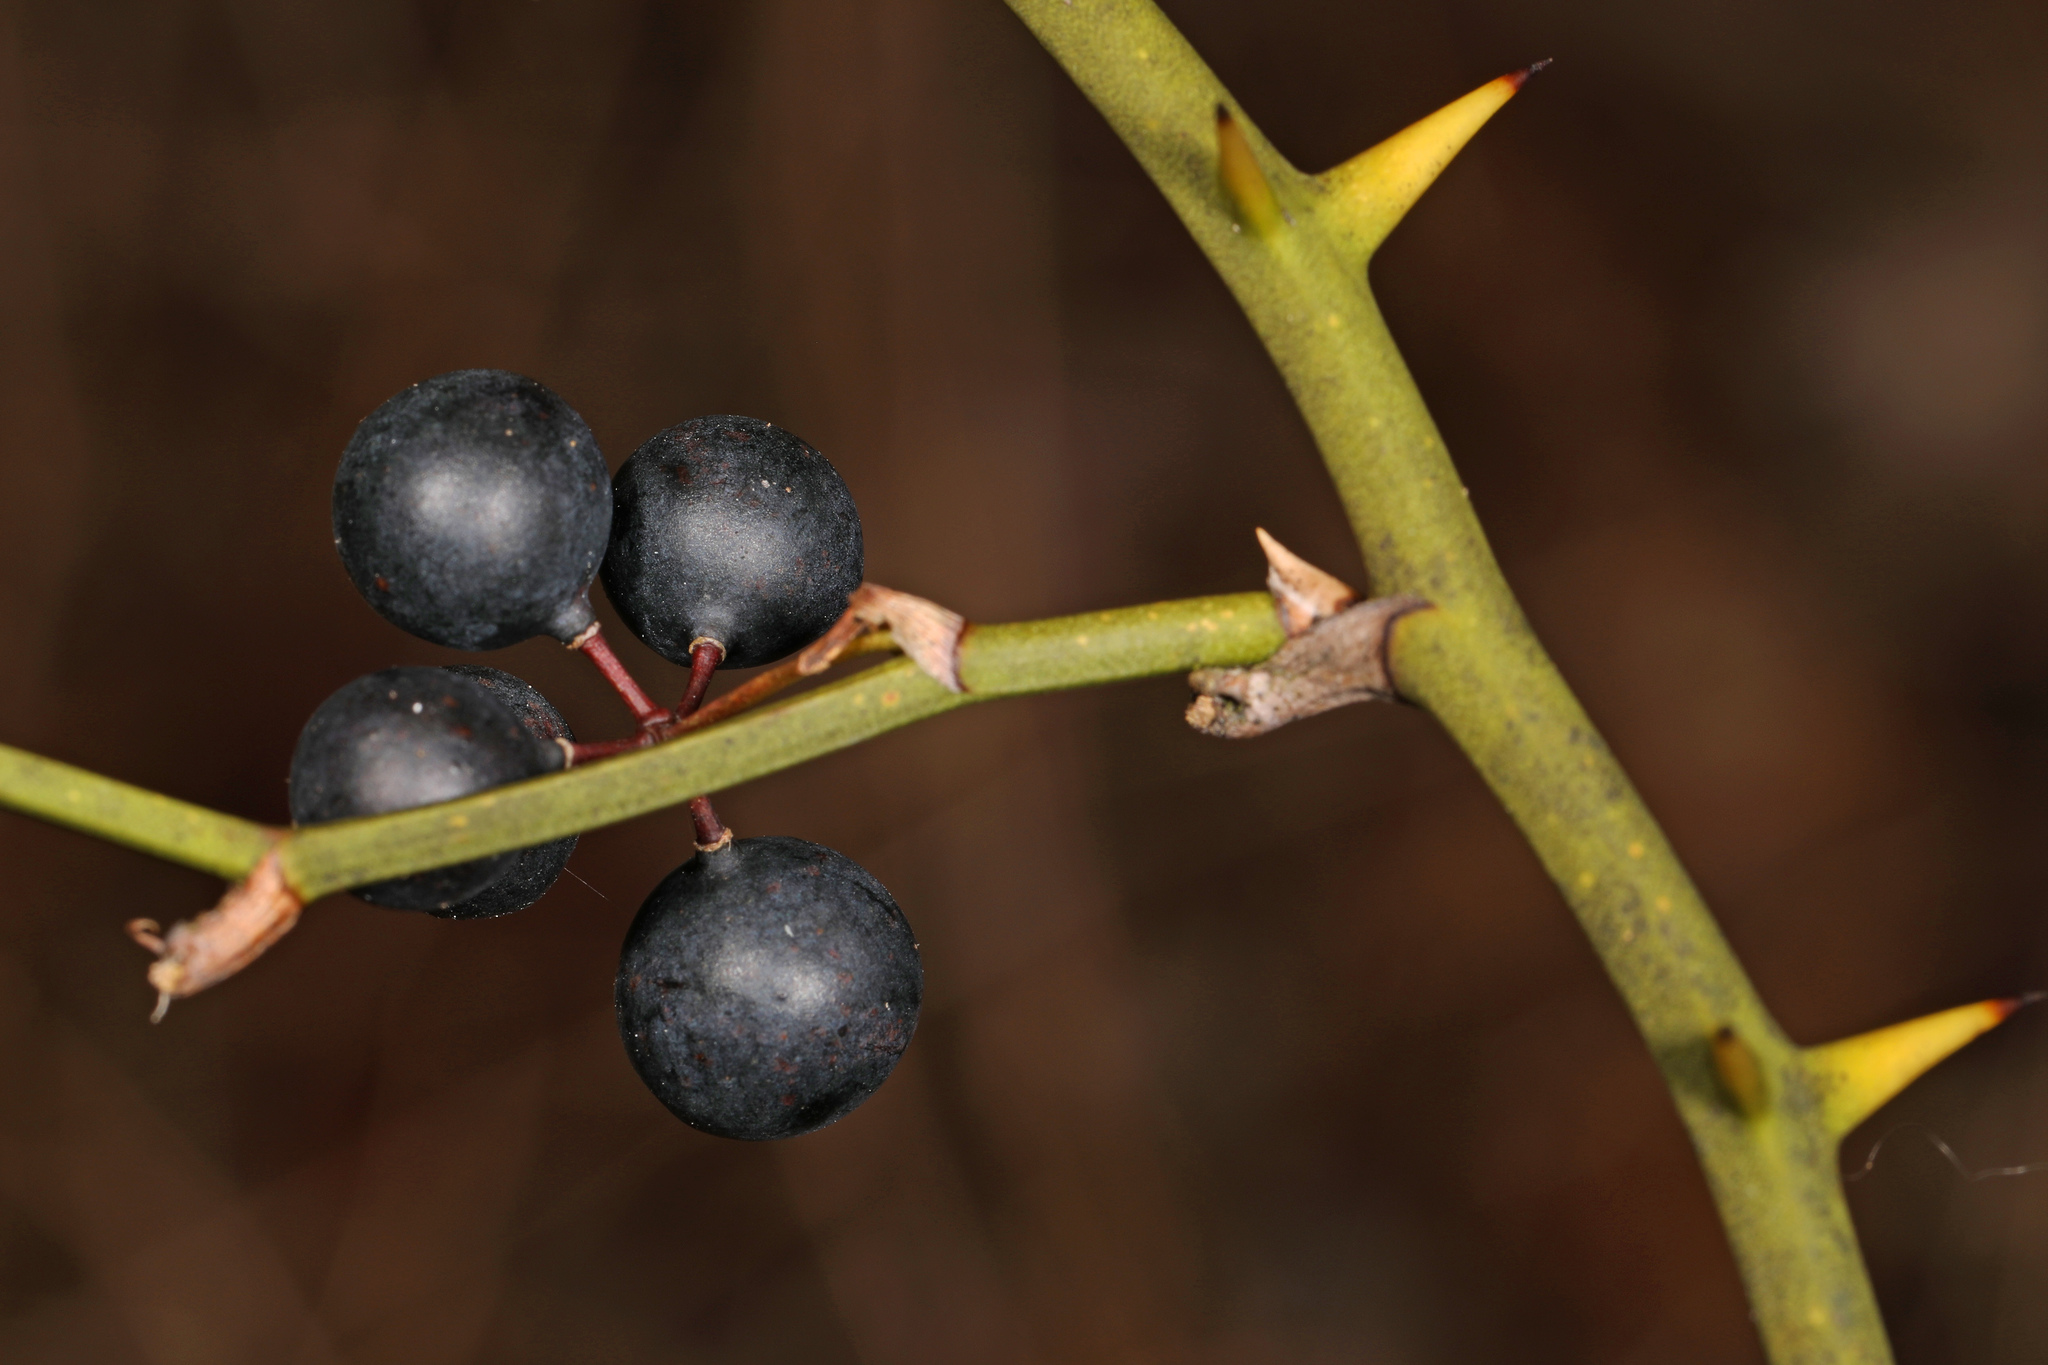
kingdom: Plantae
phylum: Tracheophyta
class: Liliopsida
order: Liliales
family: Smilacaceae
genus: Smilax
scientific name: Smilax rotundifolia
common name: Bullbriar
